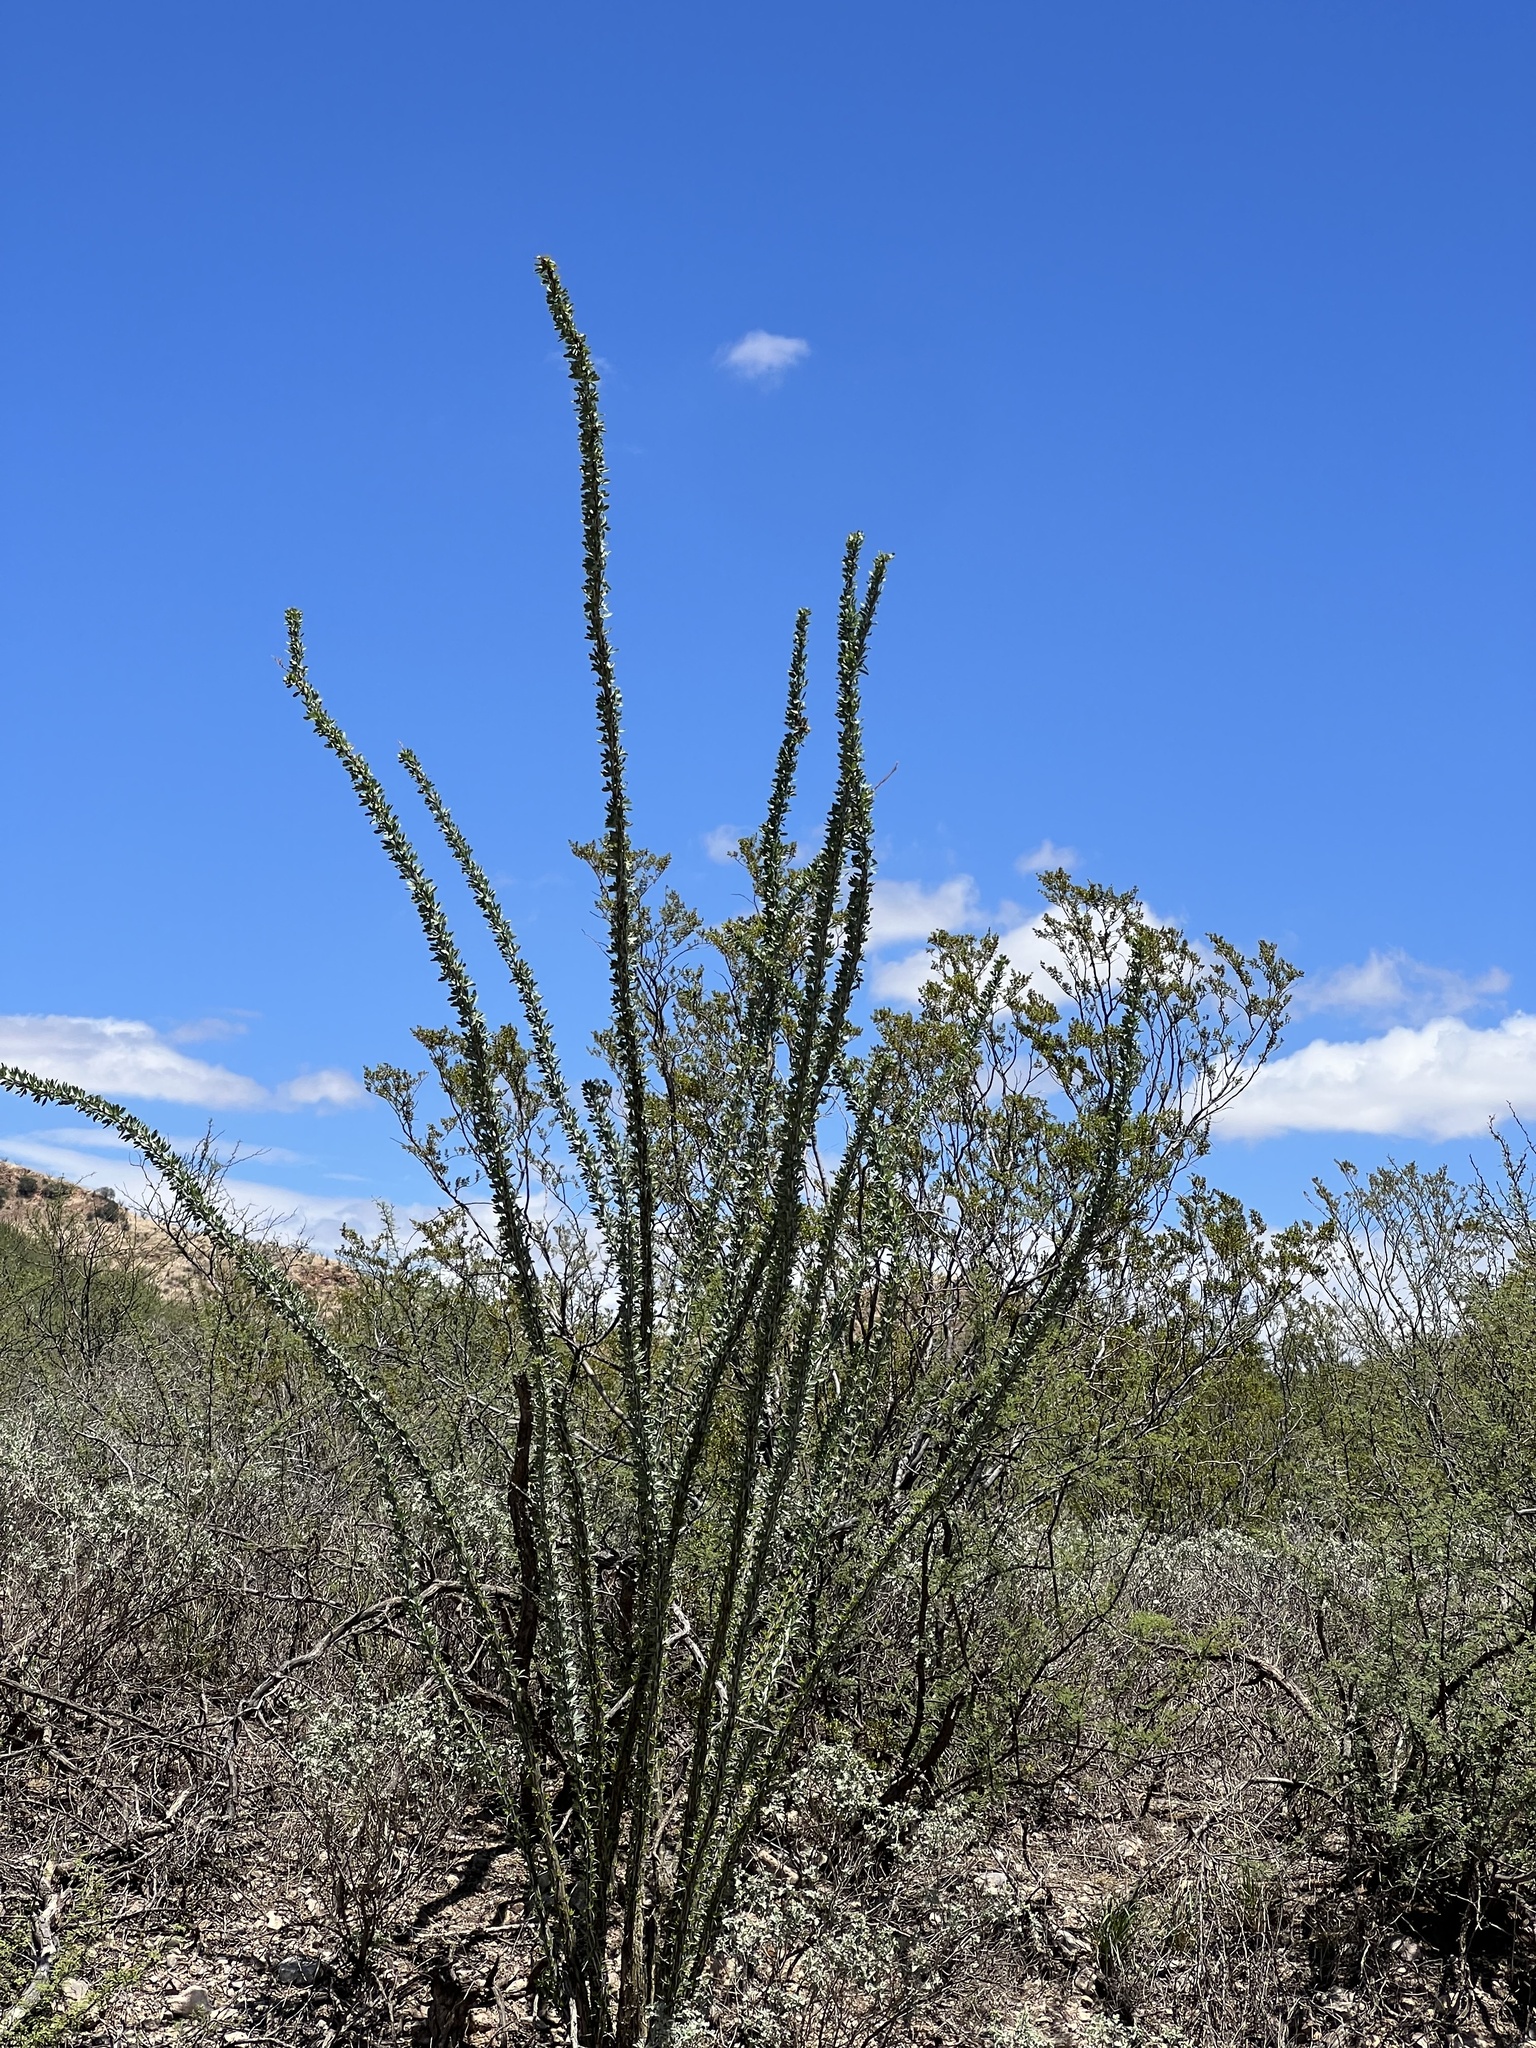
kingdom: Plantae
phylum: Tracheophyta
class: Magnoliopsida
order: Ericales
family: Fouquieriaceae
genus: Fouquieria
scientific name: Fouquieria splendens
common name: Vine-cactus
